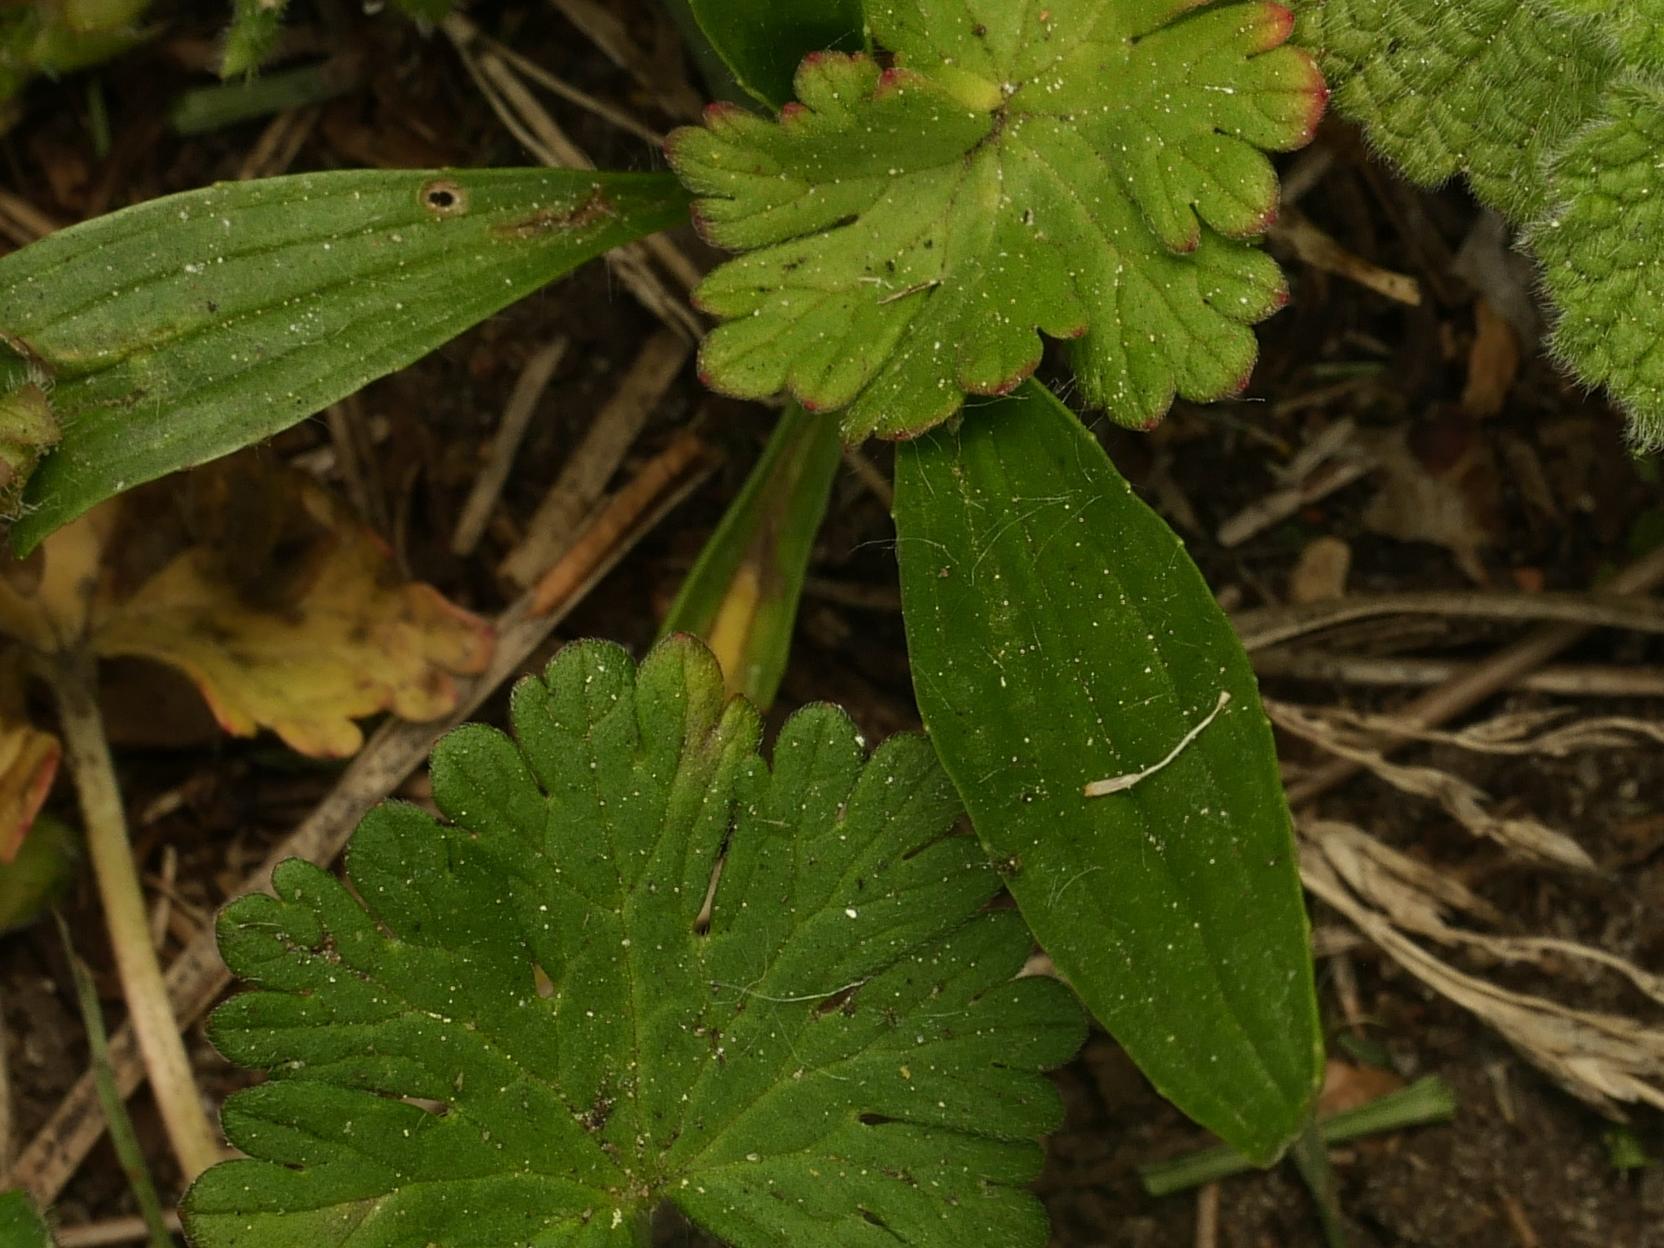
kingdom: Plantae
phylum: Tracheophyta
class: Magnoliopsida
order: Lamiales
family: Plantaginaceae
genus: Plantago
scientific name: Plantago lanceolata
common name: Ribwort plantain
